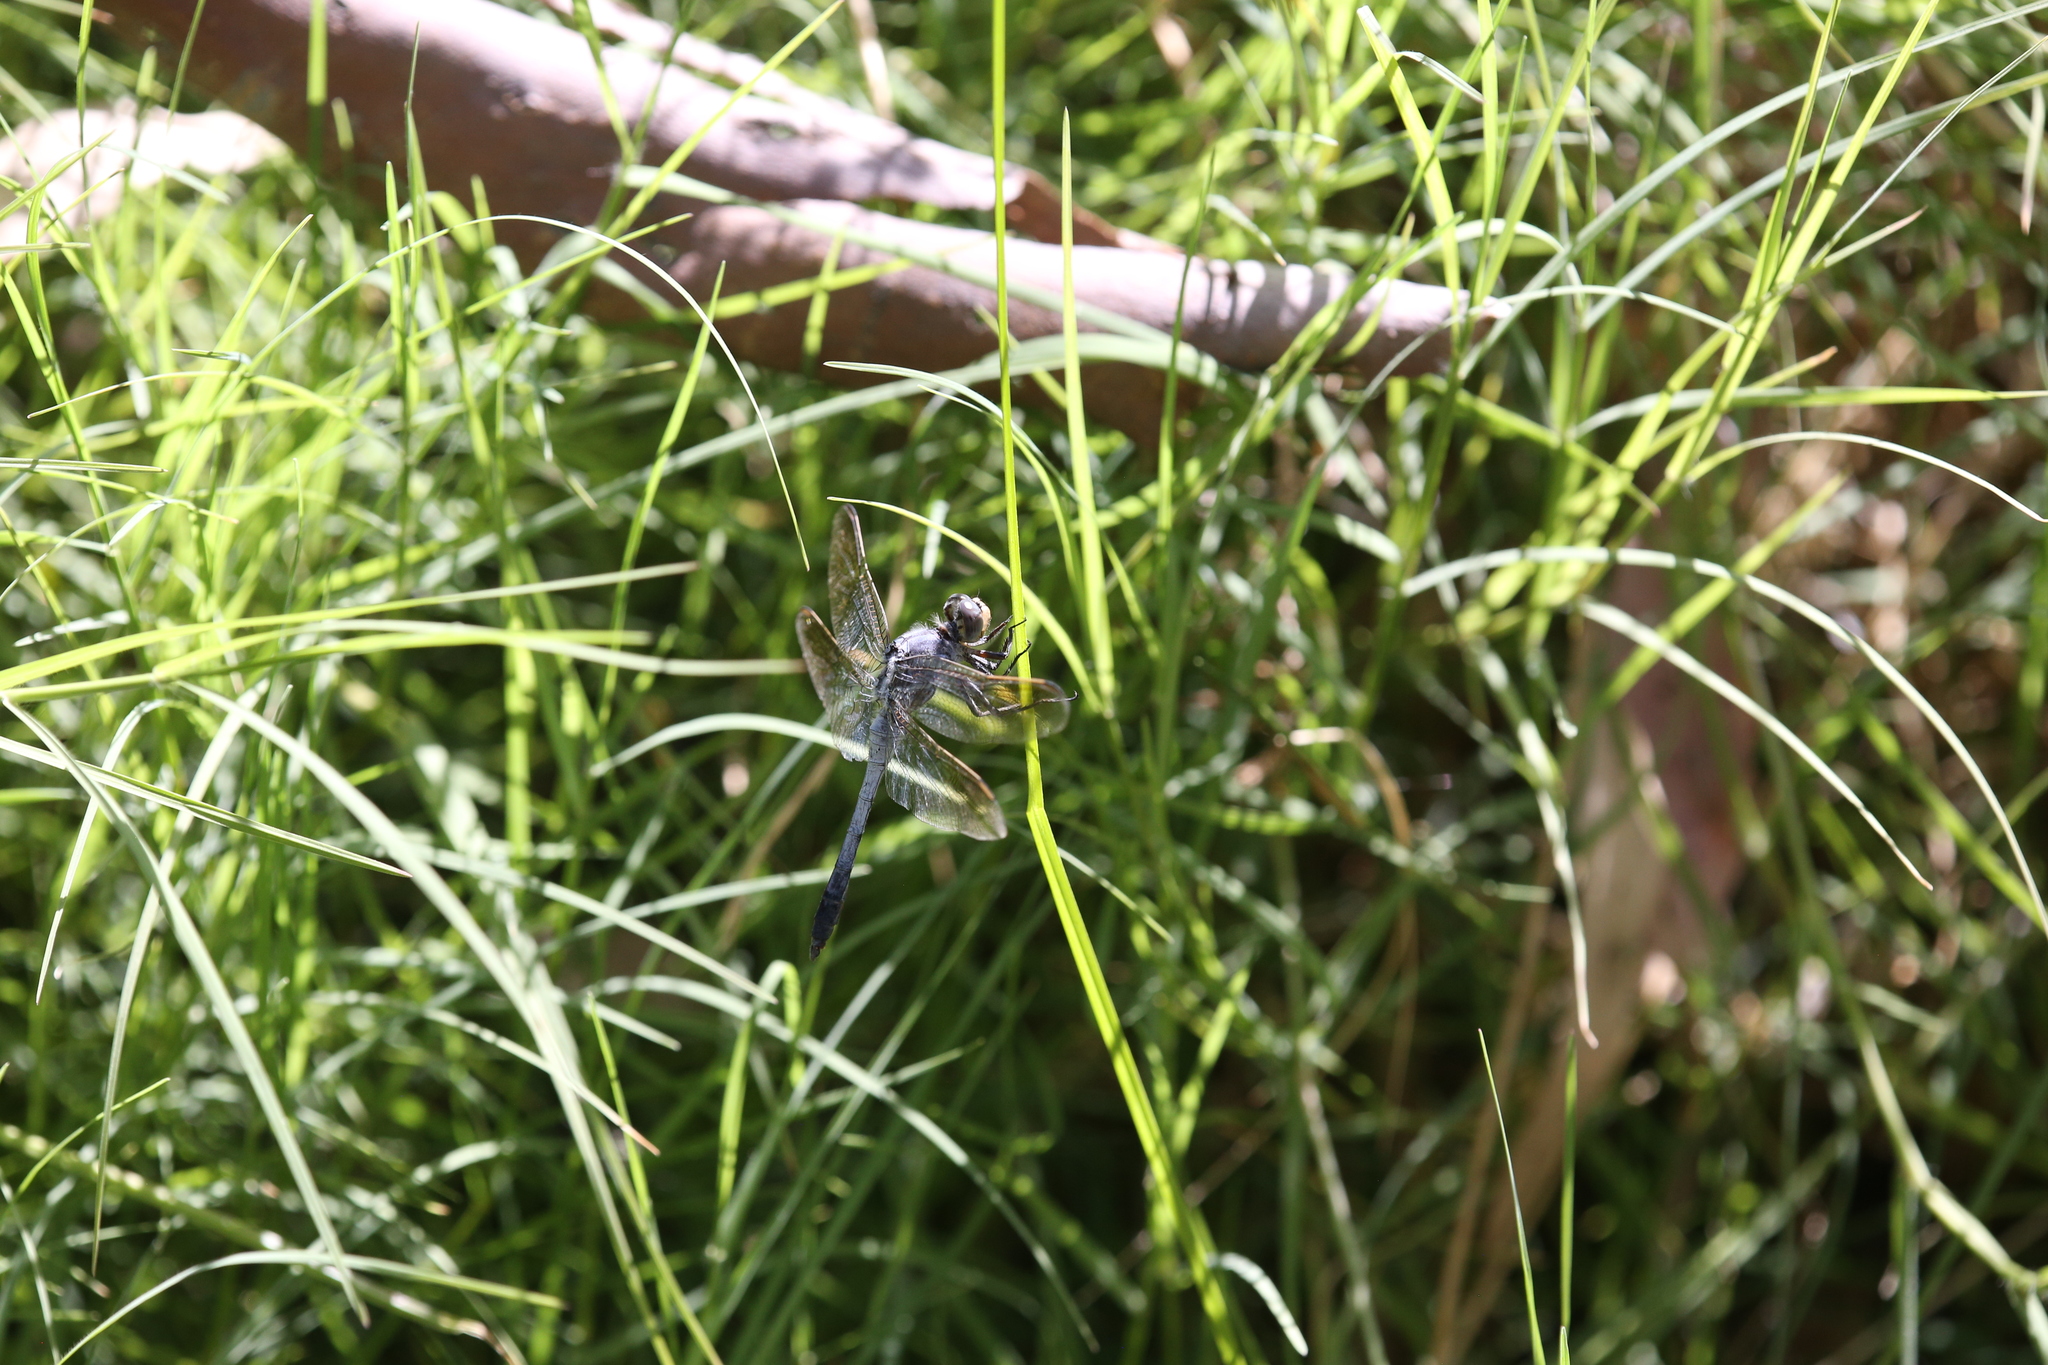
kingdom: Animalia
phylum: Arthropoda
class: Insecta
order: Odonata
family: Libellulidae
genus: Orthetrum
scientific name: Orthetrum caledonicum
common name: Blue skimmer
